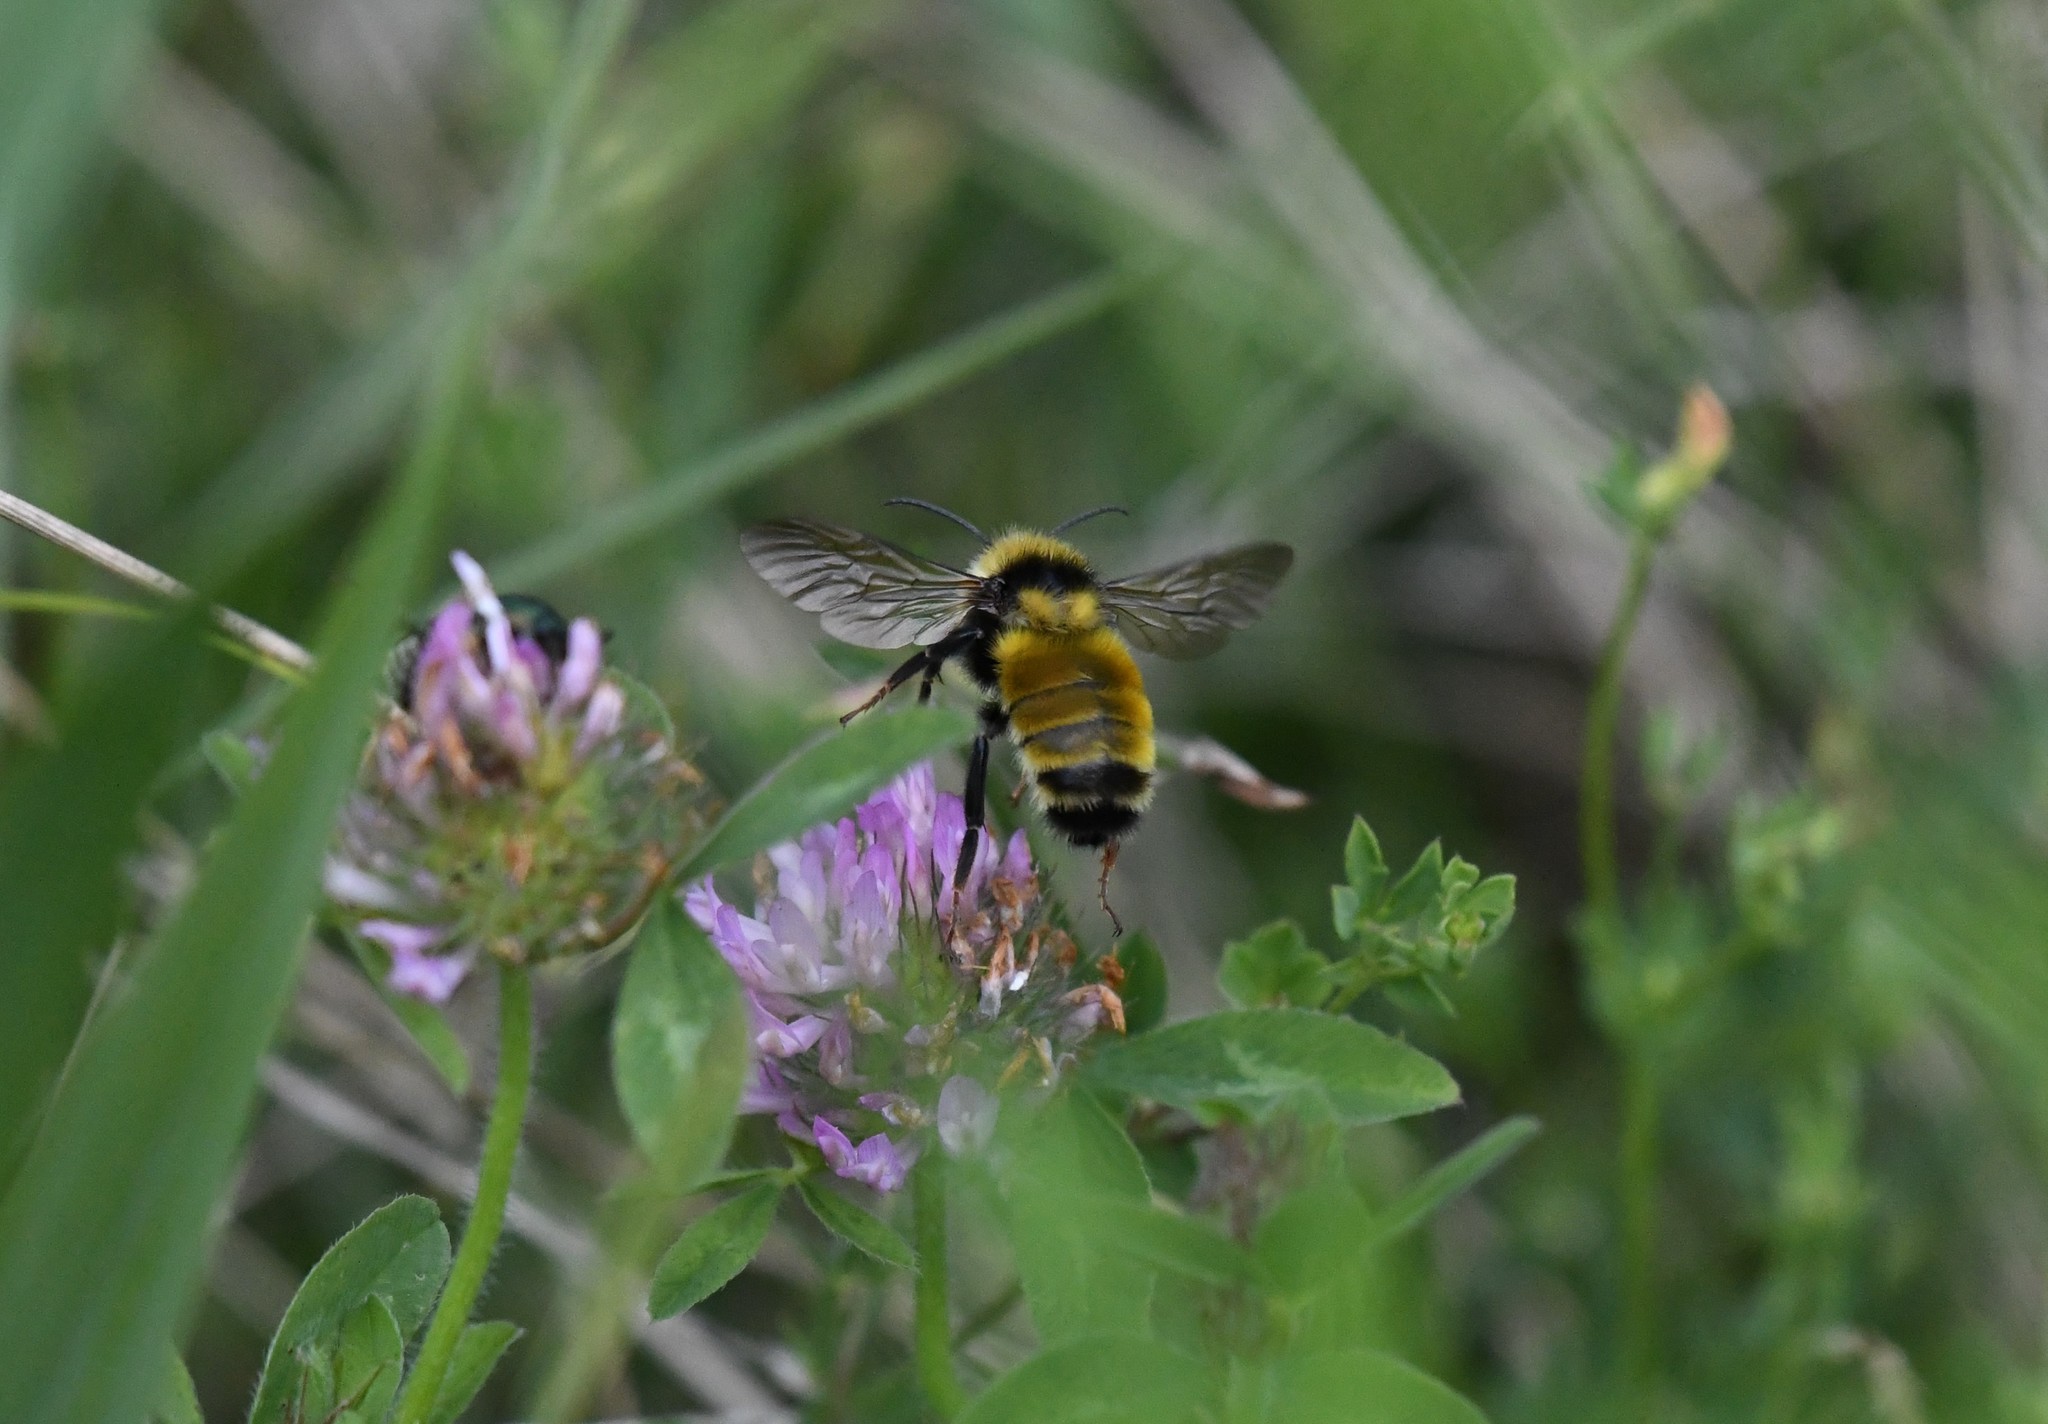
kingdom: Animalia
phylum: Arthropoda
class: Insecta
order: Hymenoptera
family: Apidae
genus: Bombus
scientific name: Bombus borealis
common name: Northern amber bumble bee
